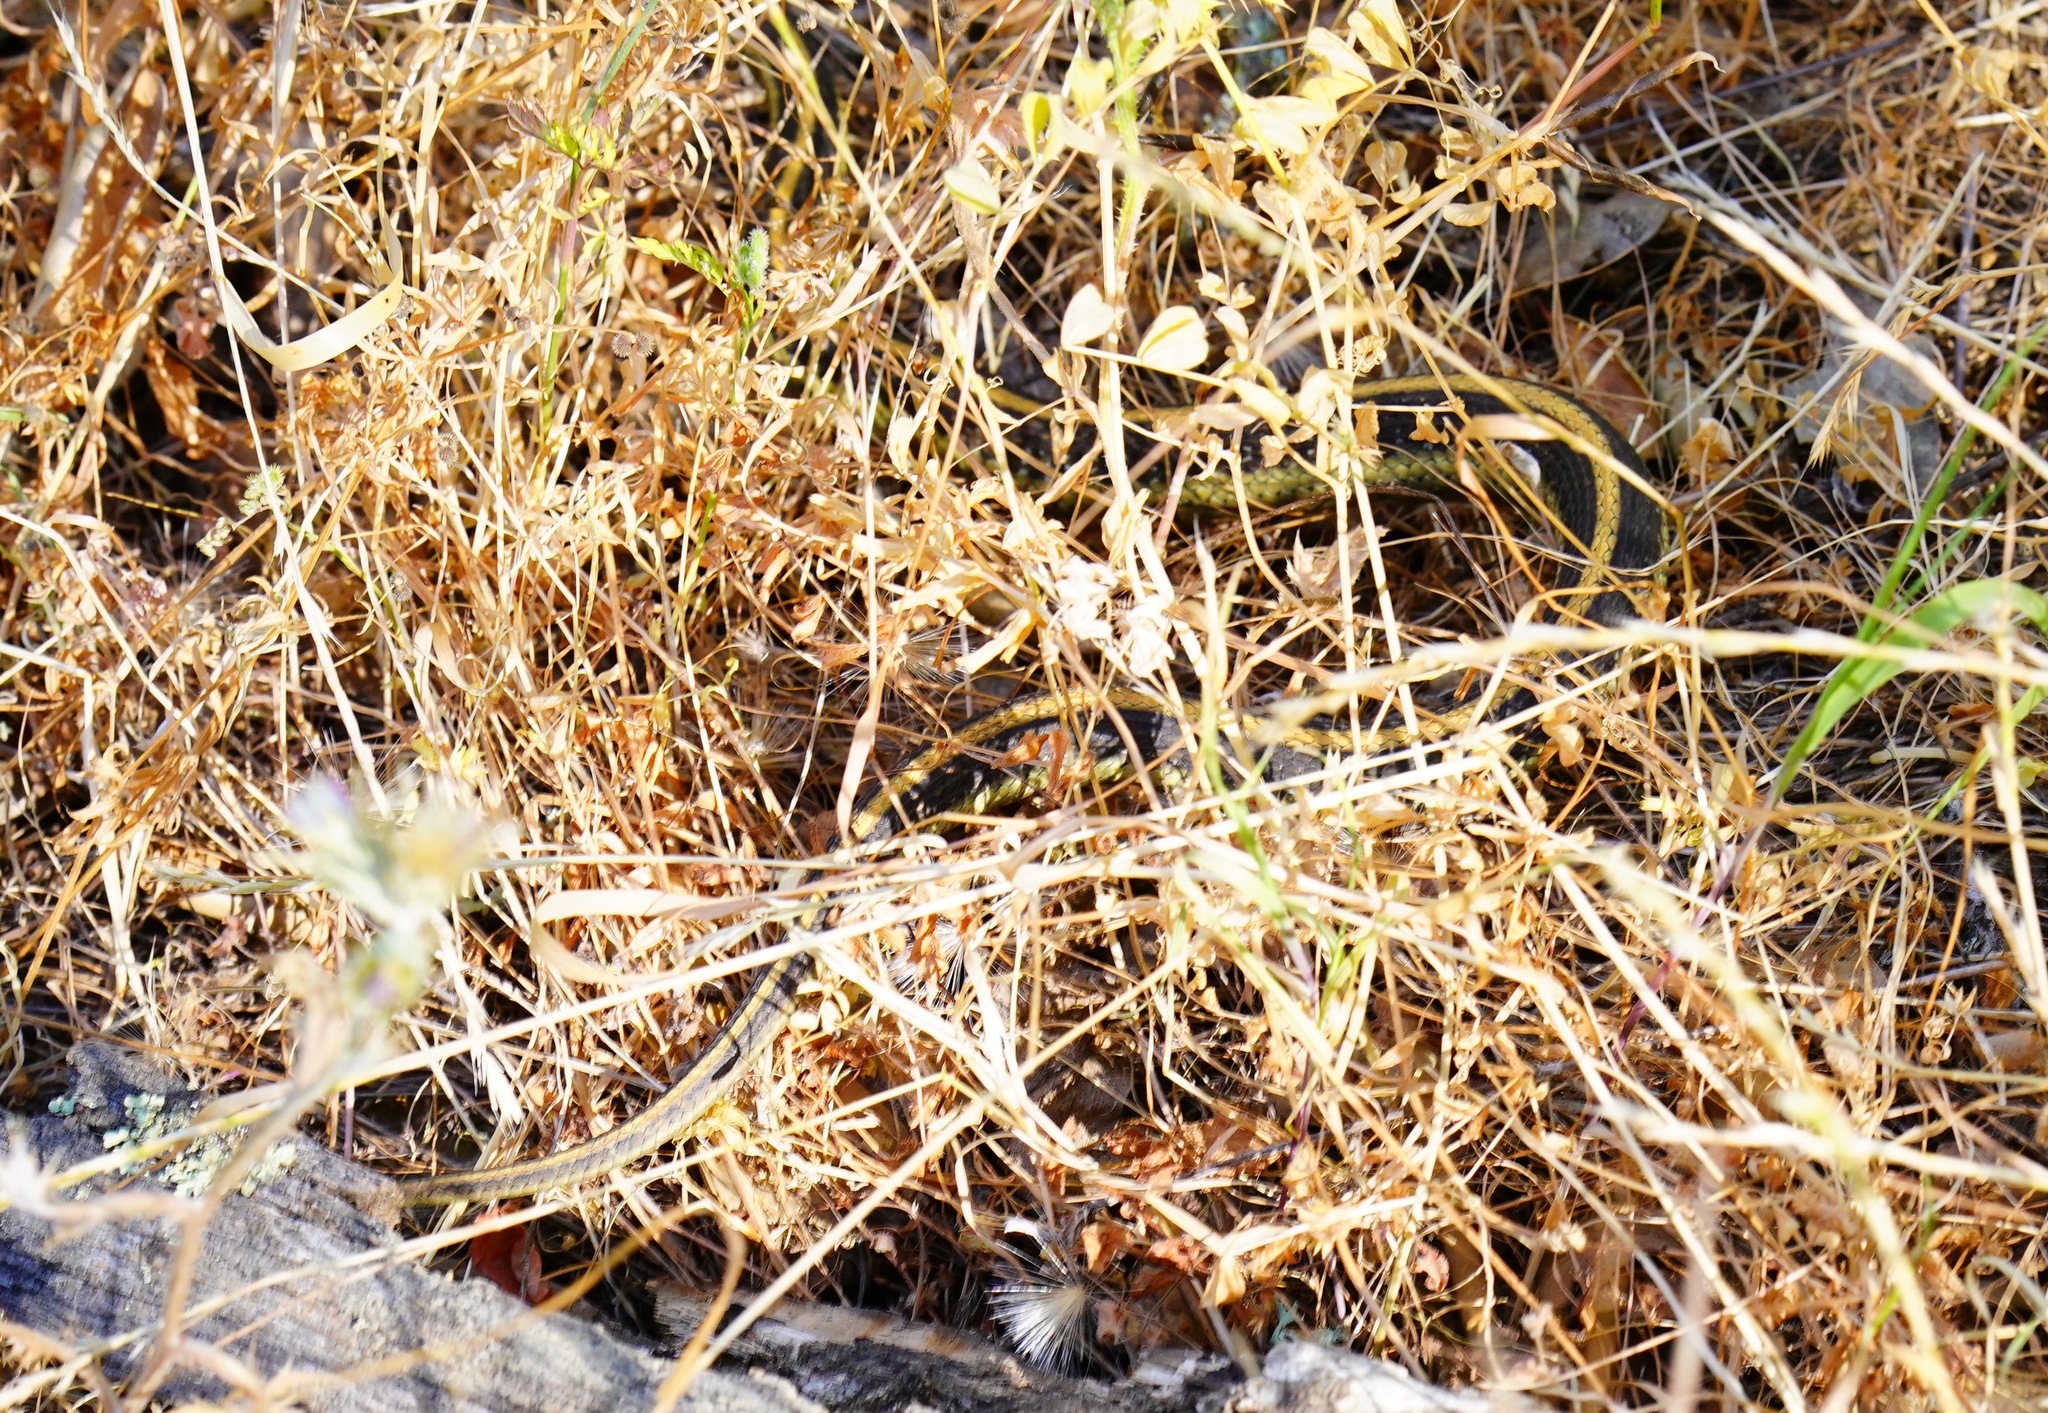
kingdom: Animalia
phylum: Chordata
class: Squamata
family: Colubridae
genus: Thamnophis
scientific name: Thamnophis atratus
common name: Pacific coast aquatic garter snake
